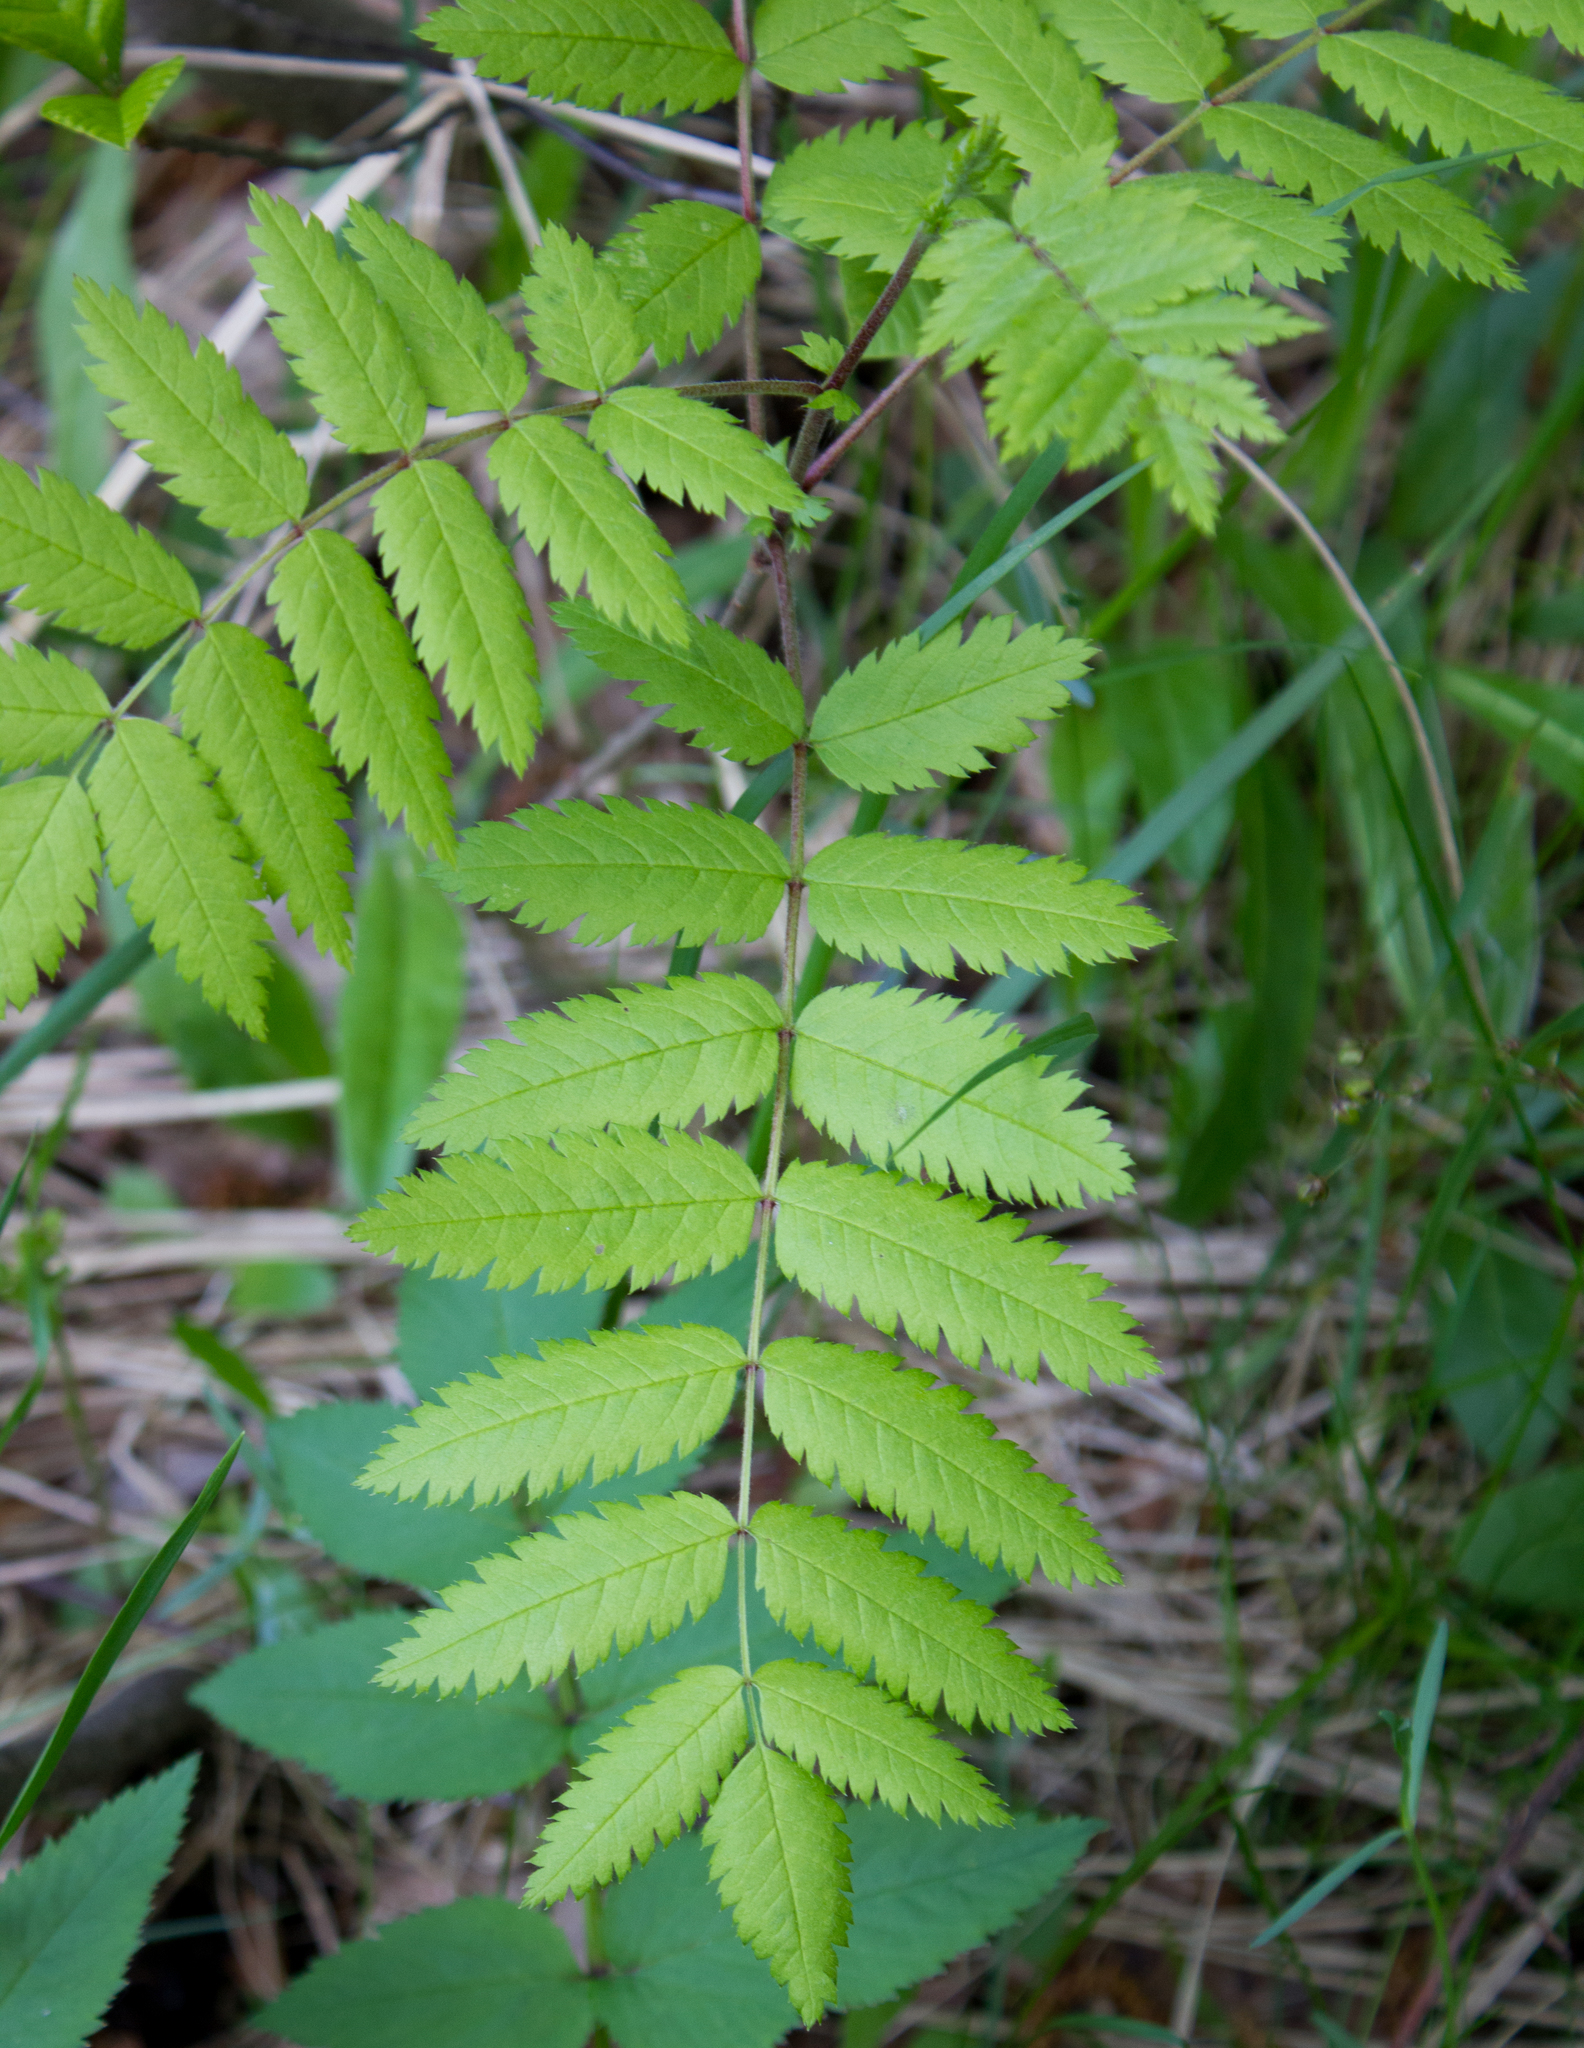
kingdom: Plantae
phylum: Tracheophyta
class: Magnoliopsida
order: Rosales
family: Rosaceae
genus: Sorbus
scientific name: Sorbus aucuparia
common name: Rowan
